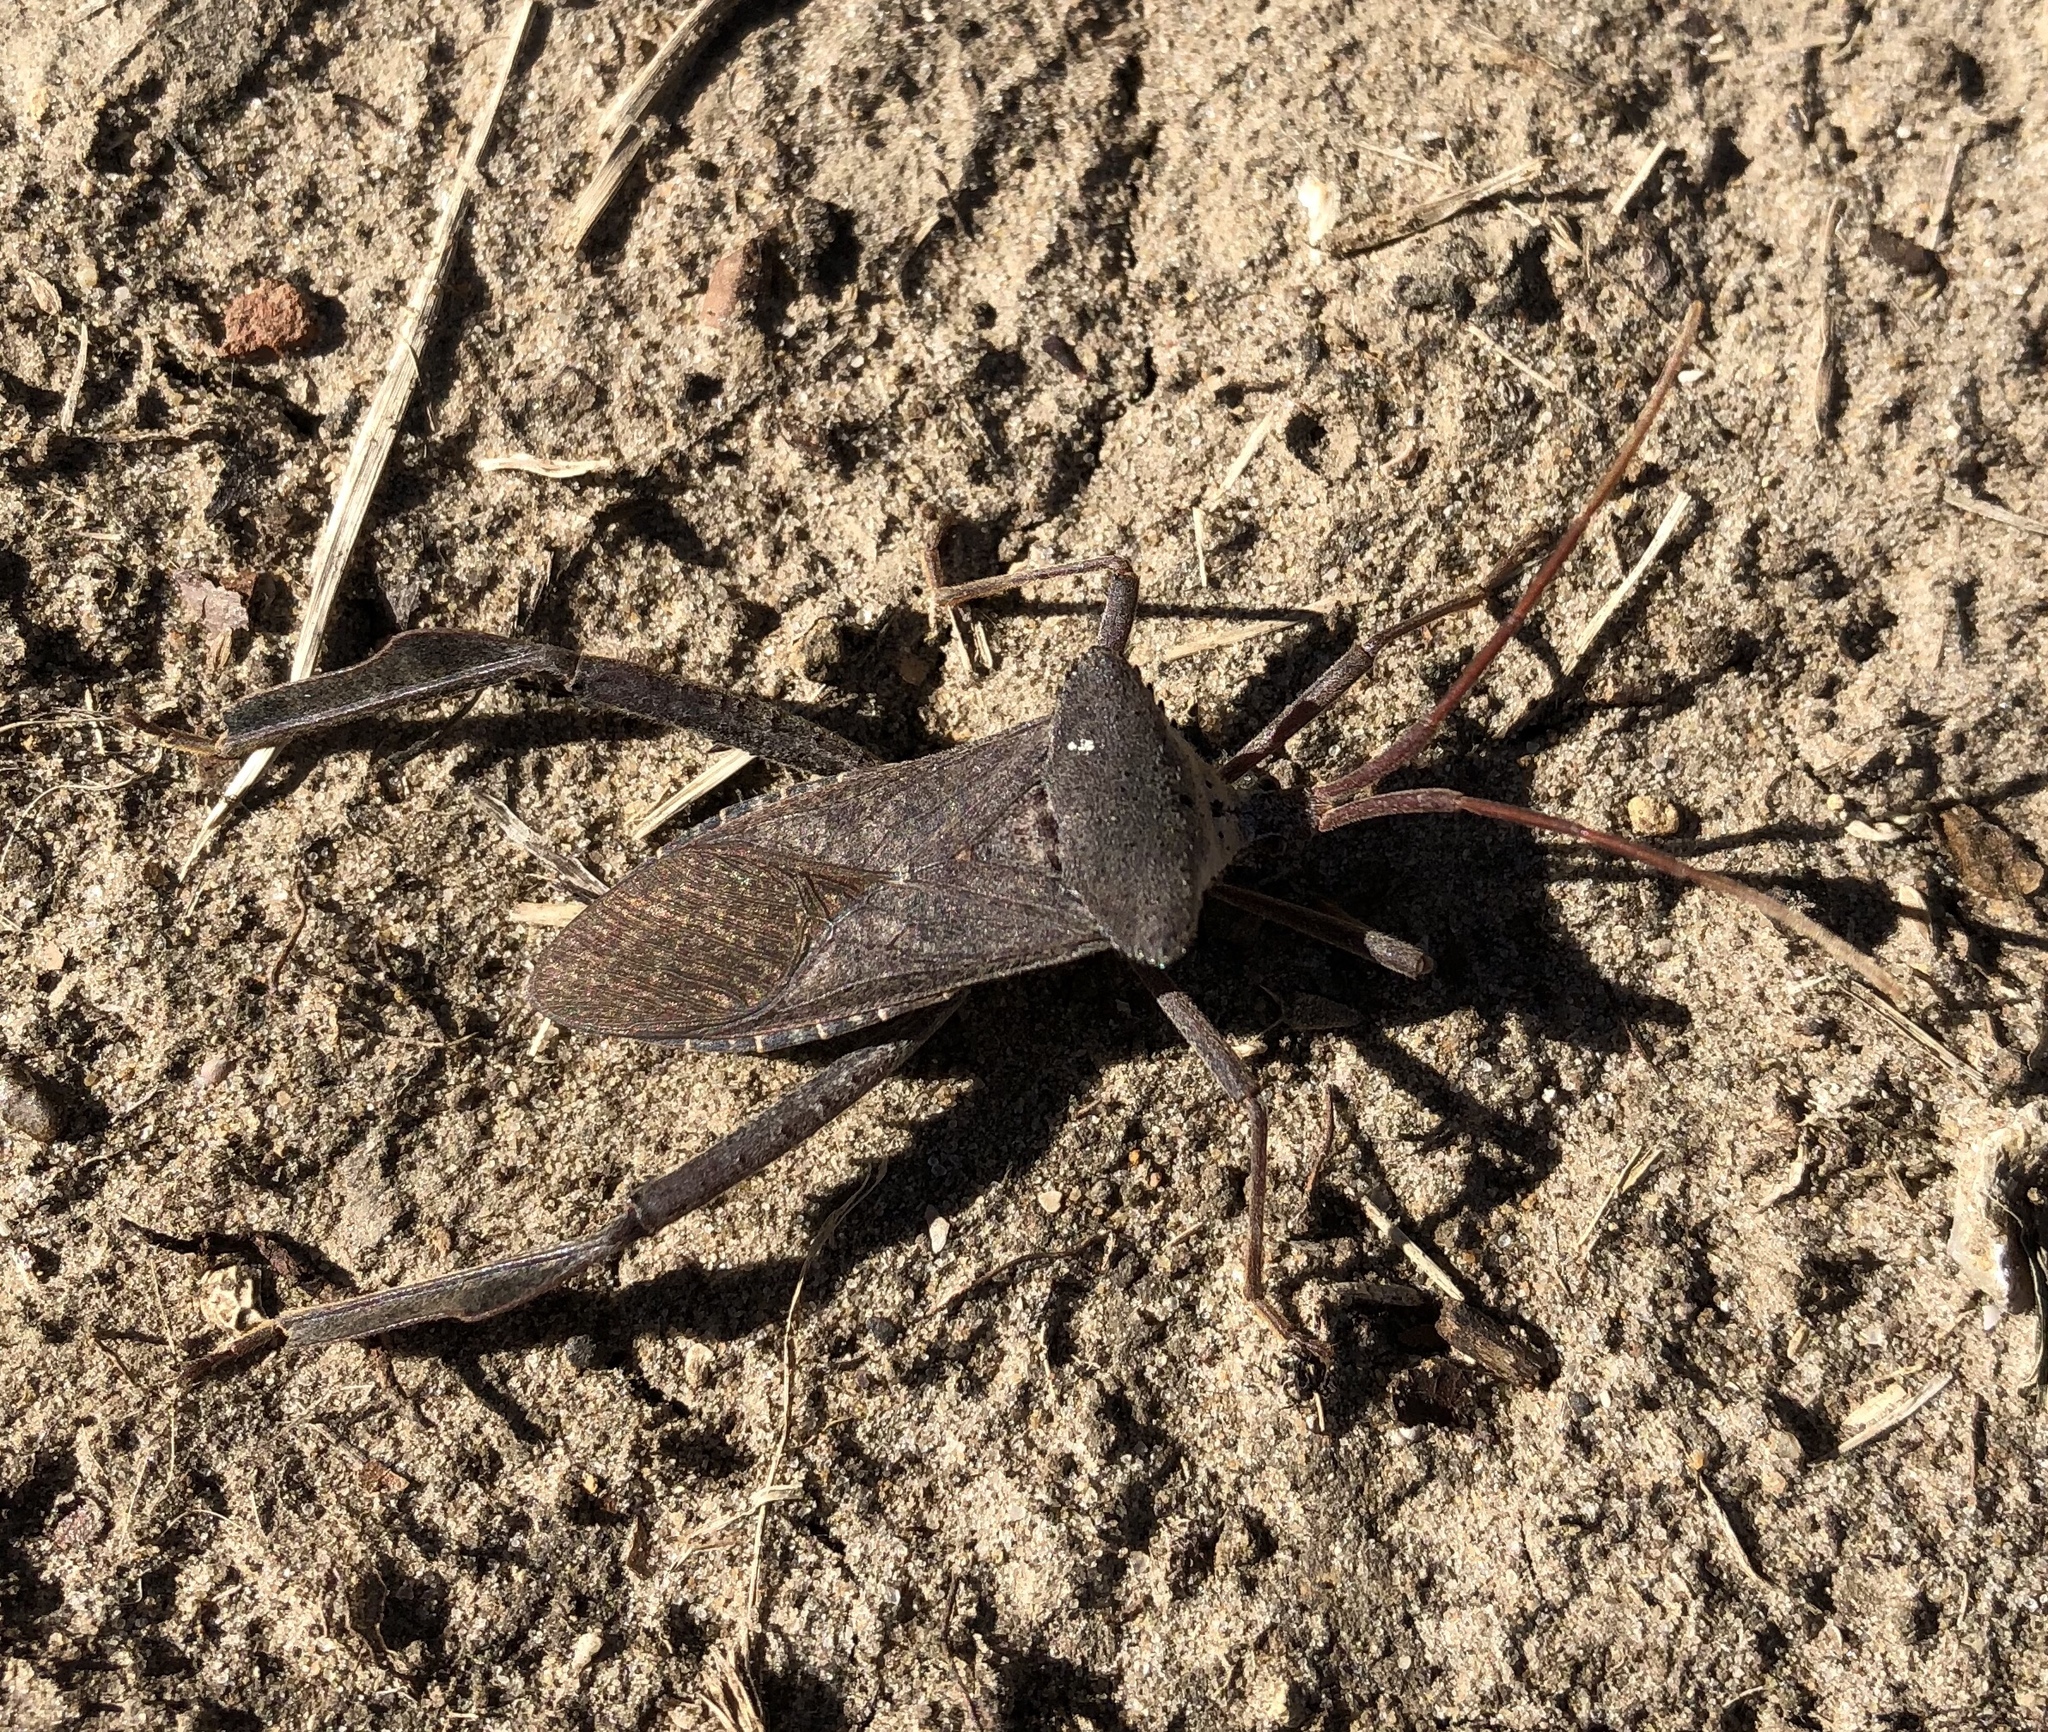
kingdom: Animalia
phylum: Arthropoda
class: Insecta
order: Hemiptera
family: Coreidae
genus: Acanthocephala
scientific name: Acanthocephala declivis
